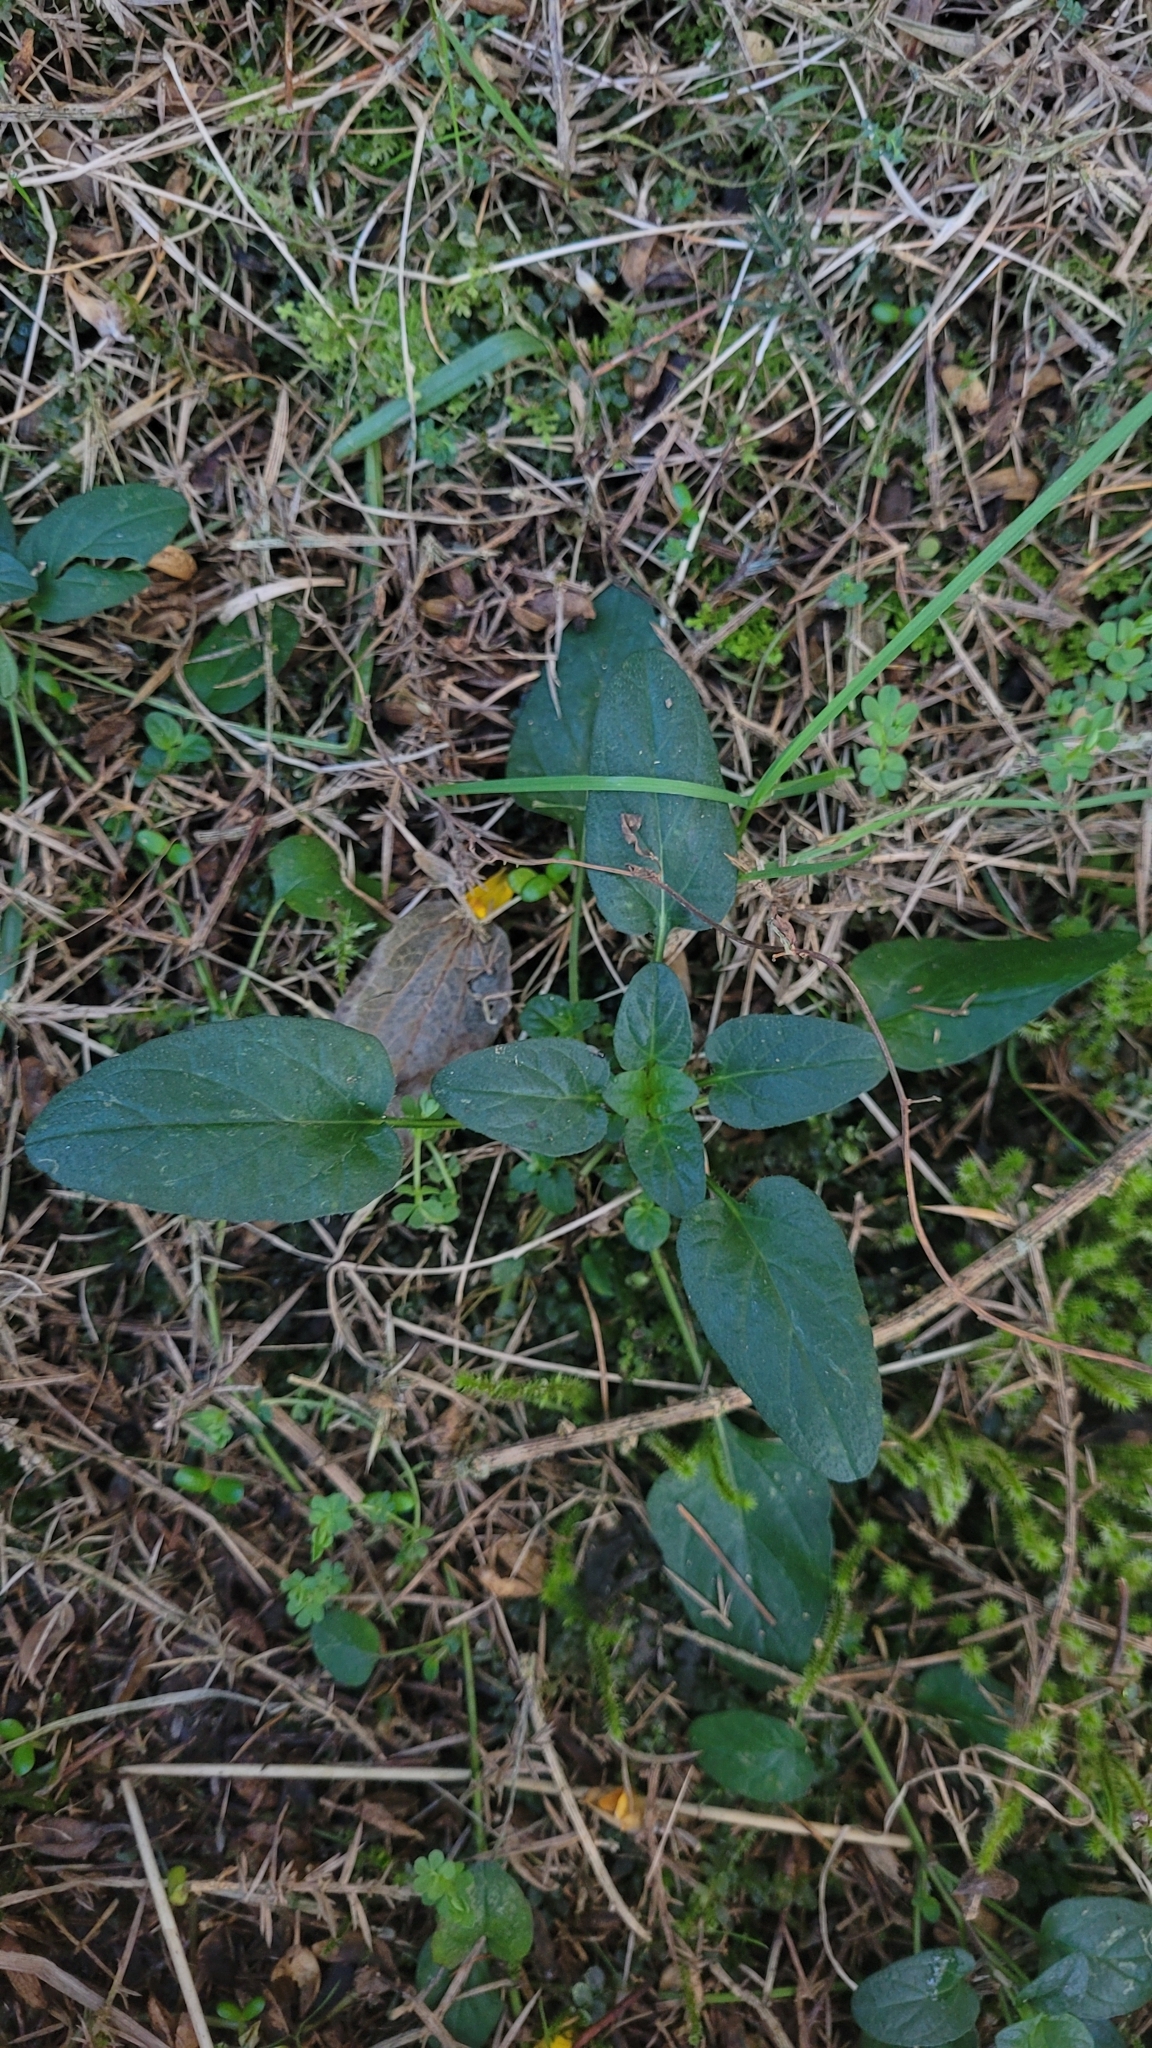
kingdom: Plantae
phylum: Tracheophyta
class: Magnoliopsida
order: Lamiales
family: Lamiaceae
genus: Prunella
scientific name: Prunella vulgaris
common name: Heal-all
